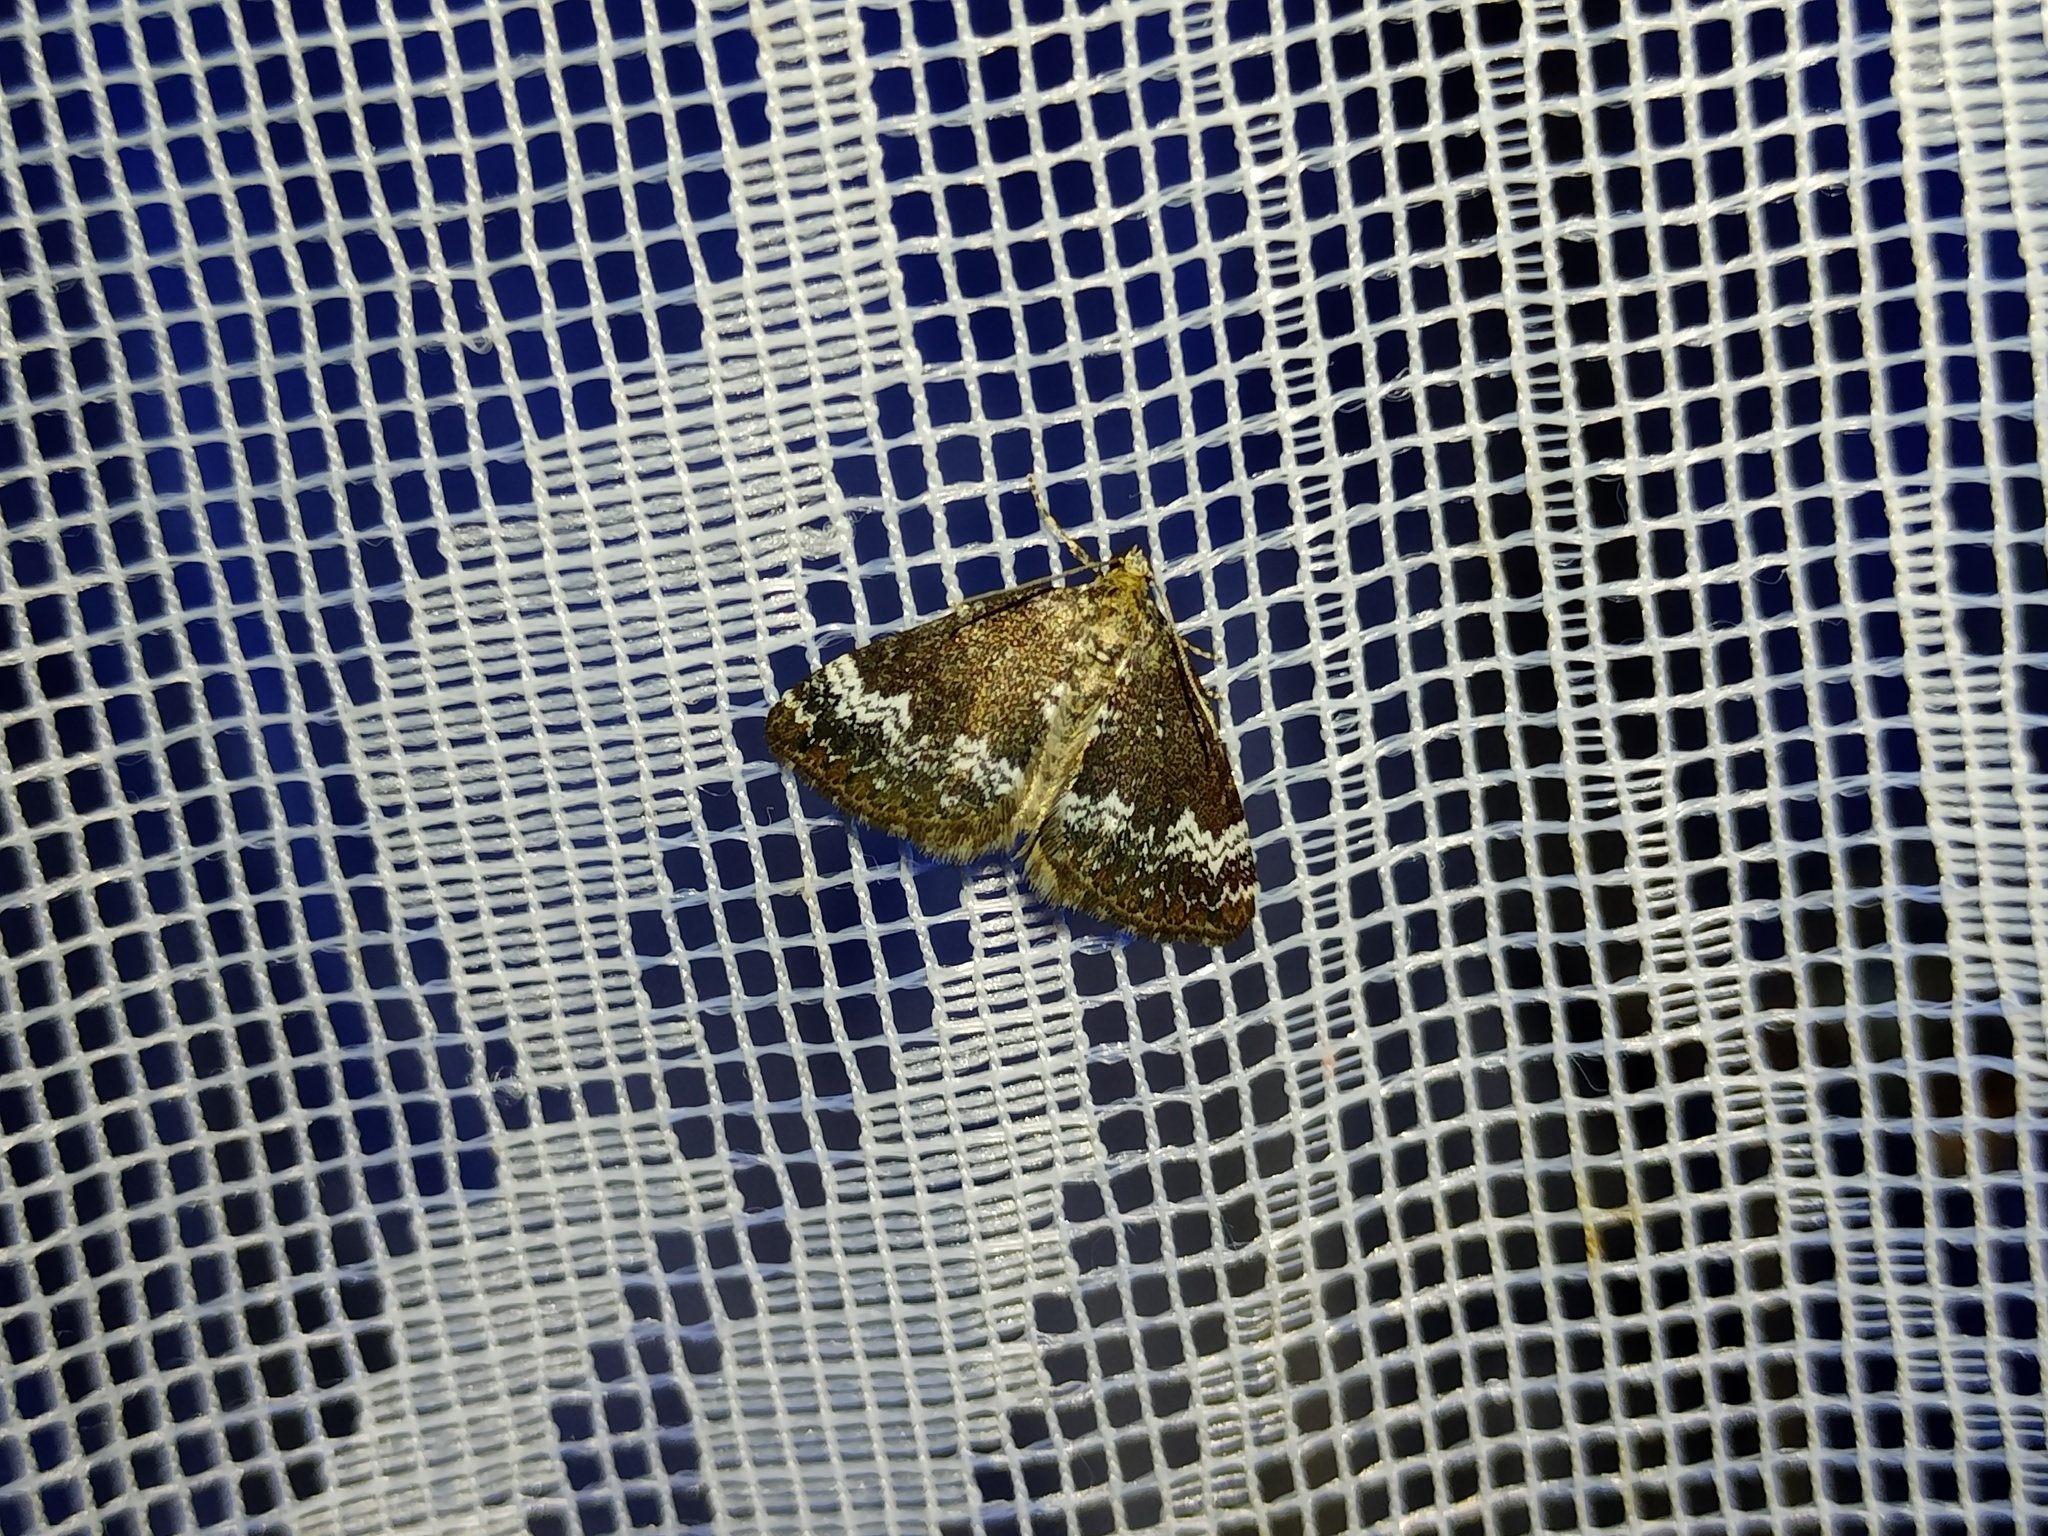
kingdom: Animalia
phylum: Arthropoda
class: Insecta
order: Lepidoptera
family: Geometridae
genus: Perizoma
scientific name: Perizoma alchemillata
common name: Small rivulet
